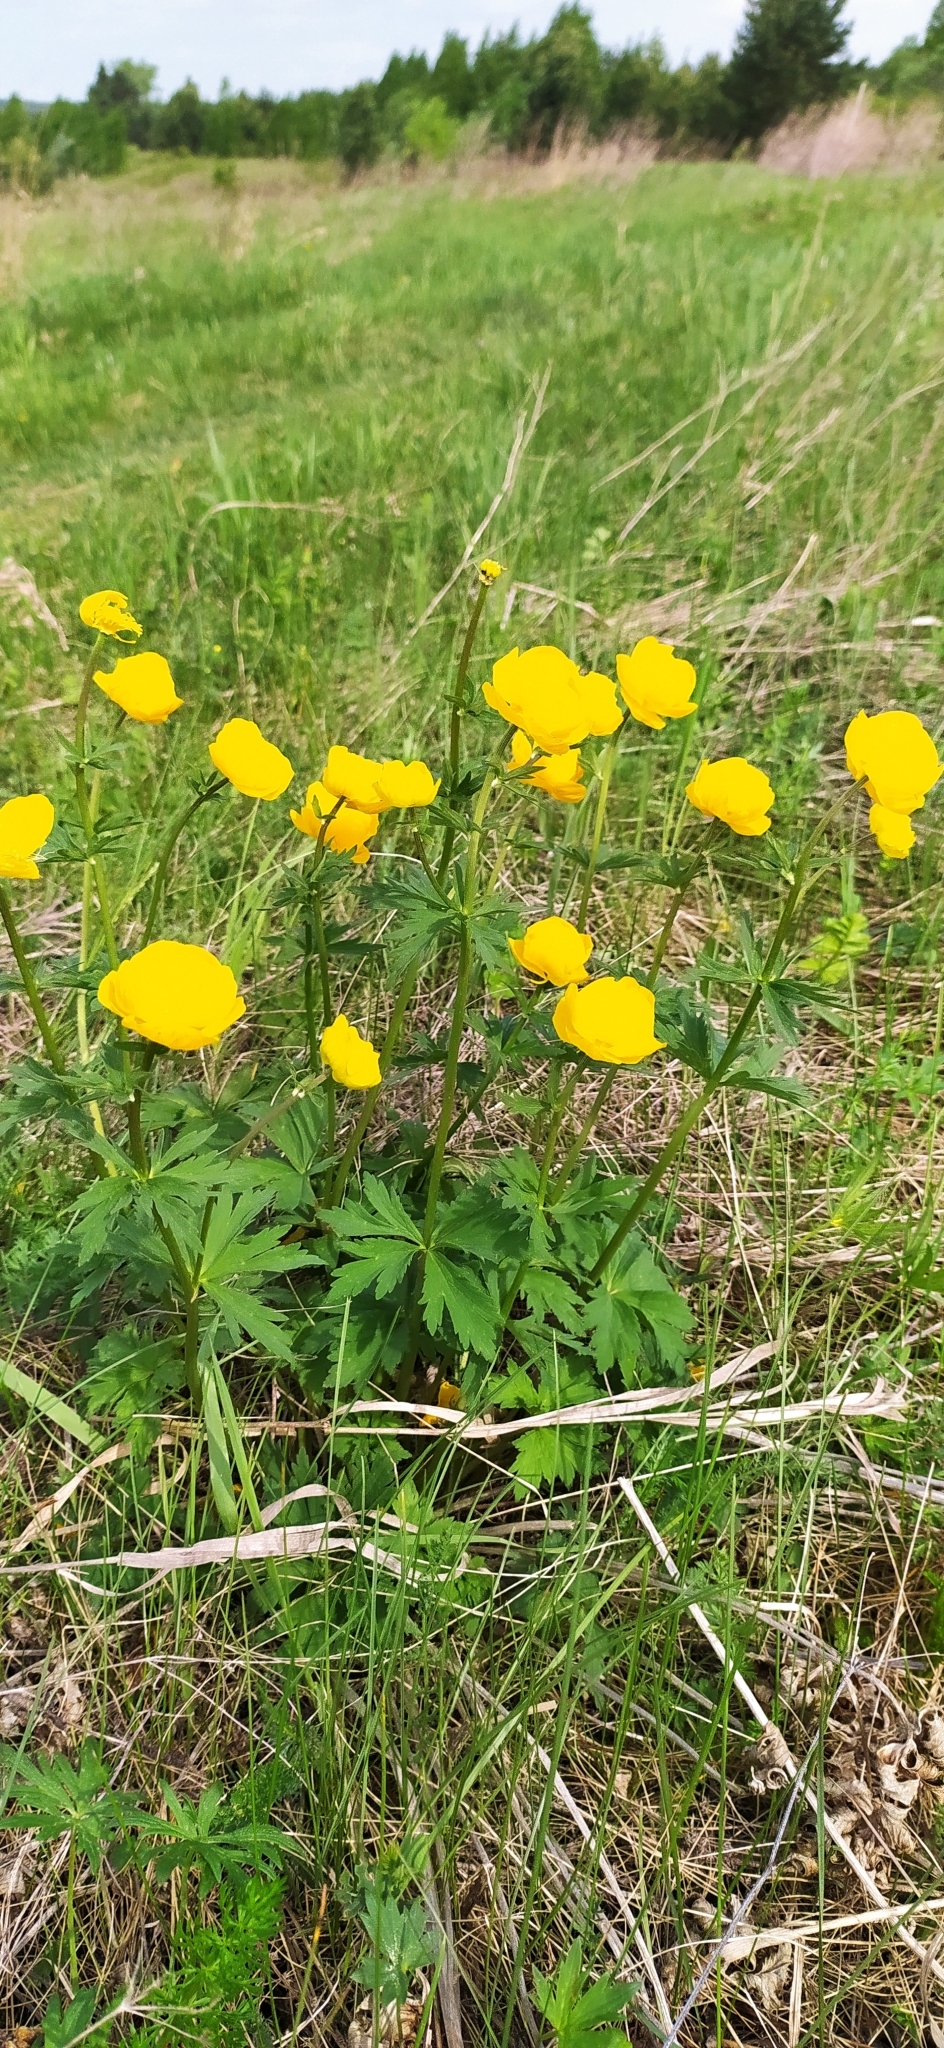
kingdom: Plantae
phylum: Tracheophyta
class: Magnoliopsida
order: Ranunculales
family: Ranunculaceae
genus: Trollius
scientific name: Trollius europaeus
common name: European globeflower
